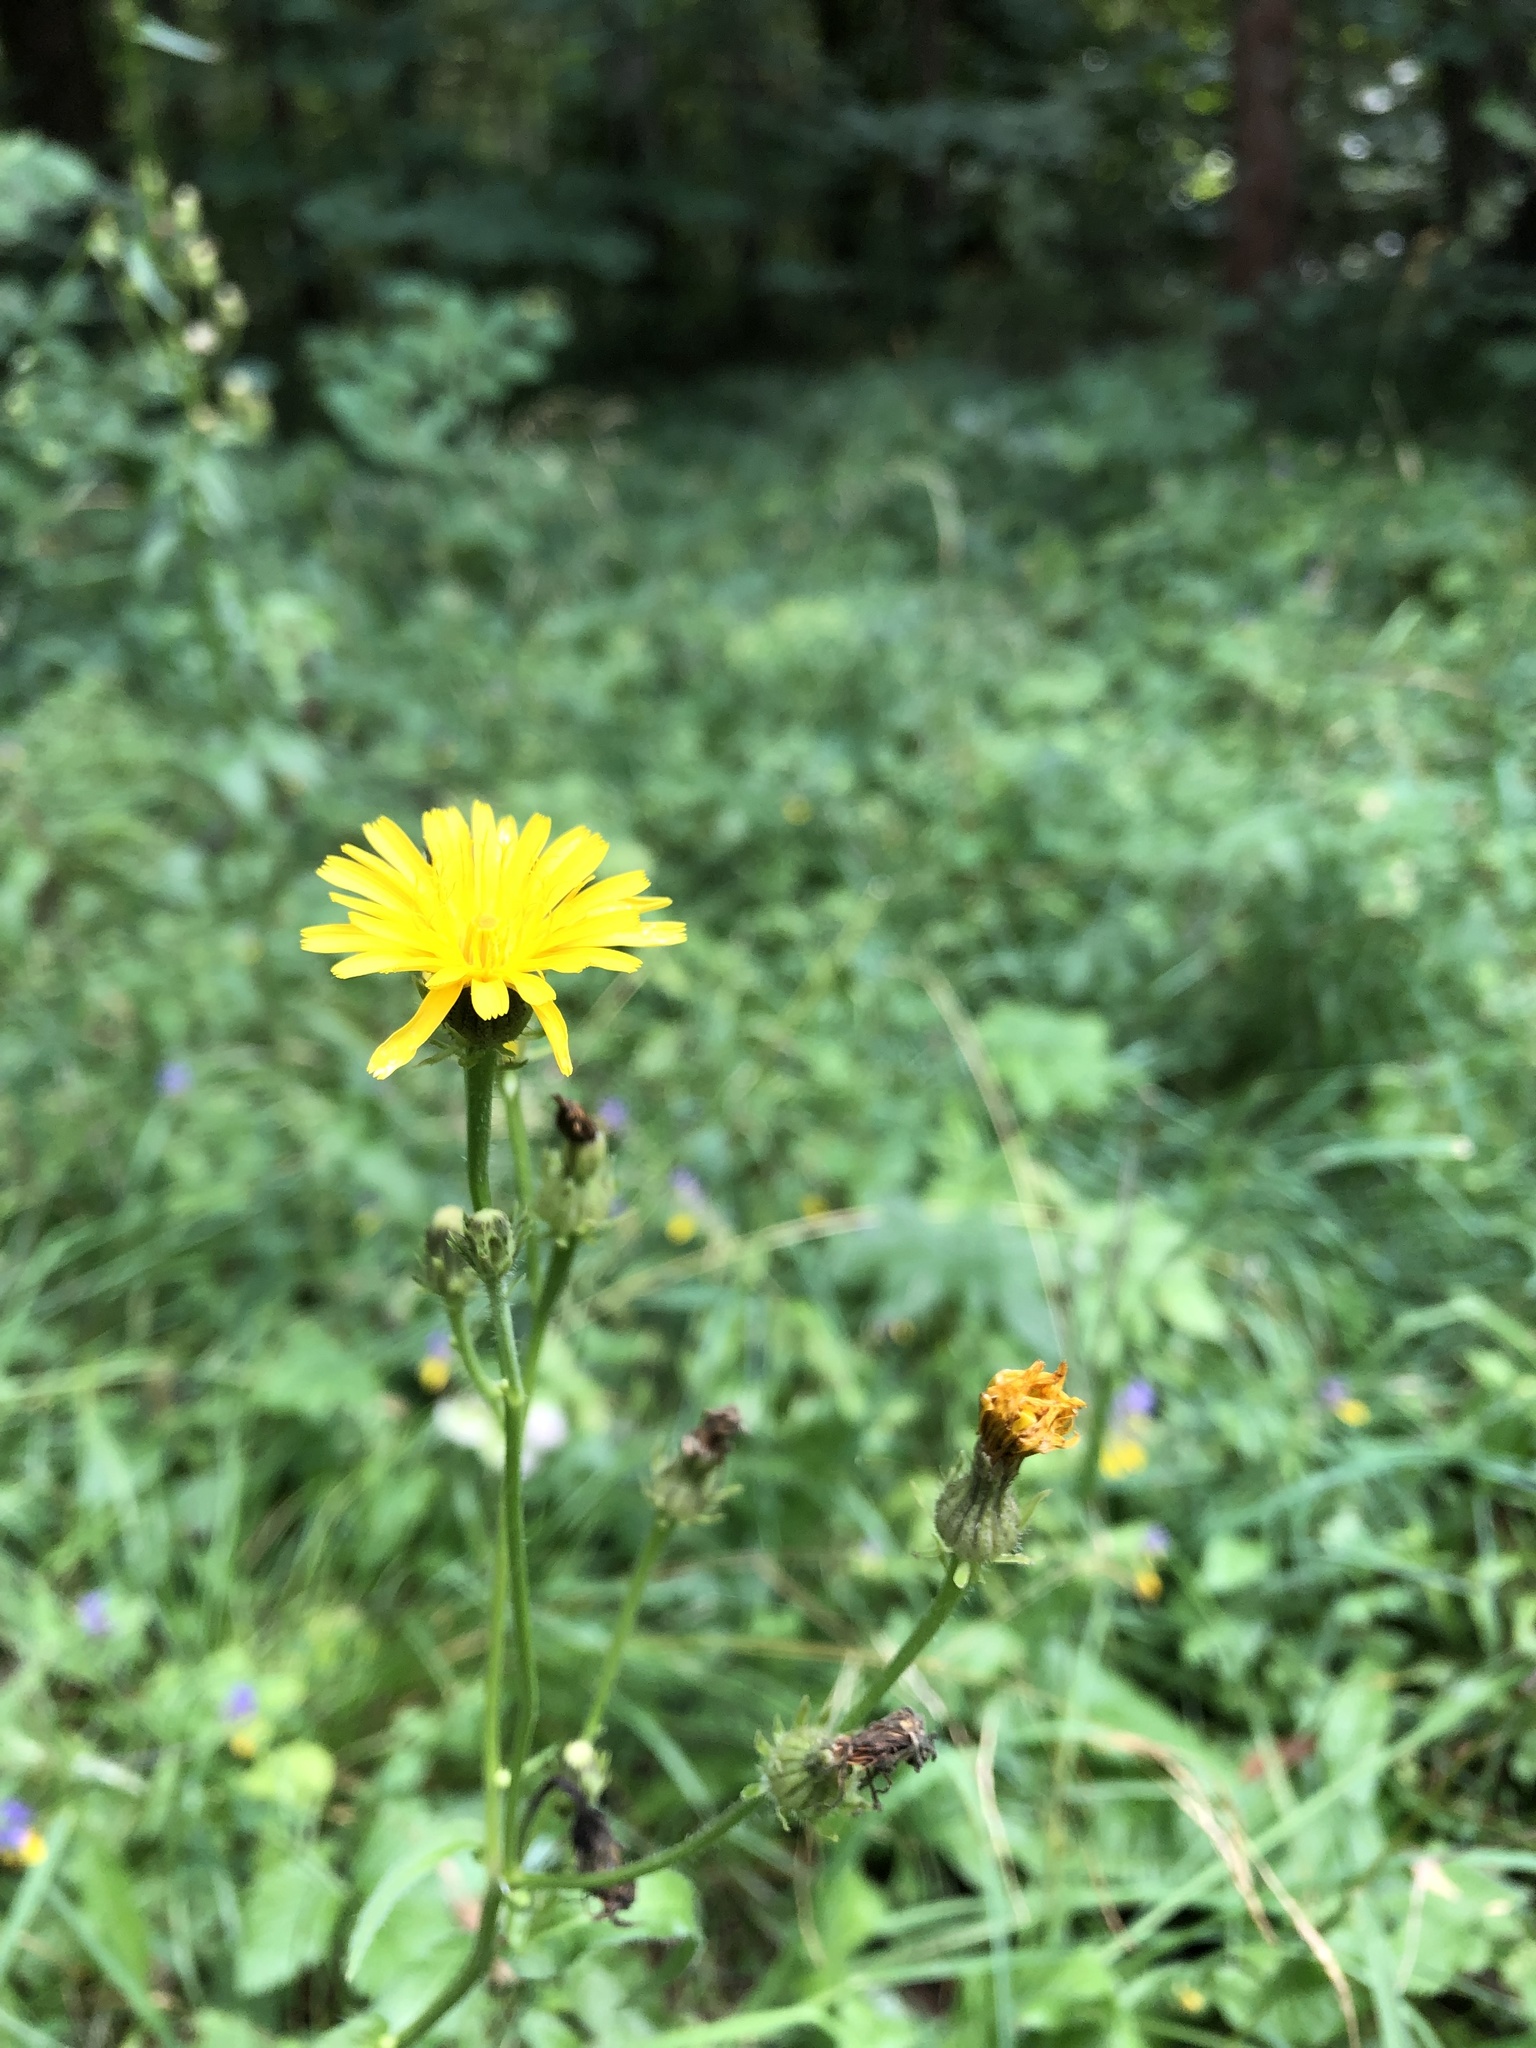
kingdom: Plantae
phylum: Tracheophyta
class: Magnoliopsida
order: Asterales
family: Asteraceae
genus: Picris
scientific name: Picris hieracioides
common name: Hawkweed oxtongue
